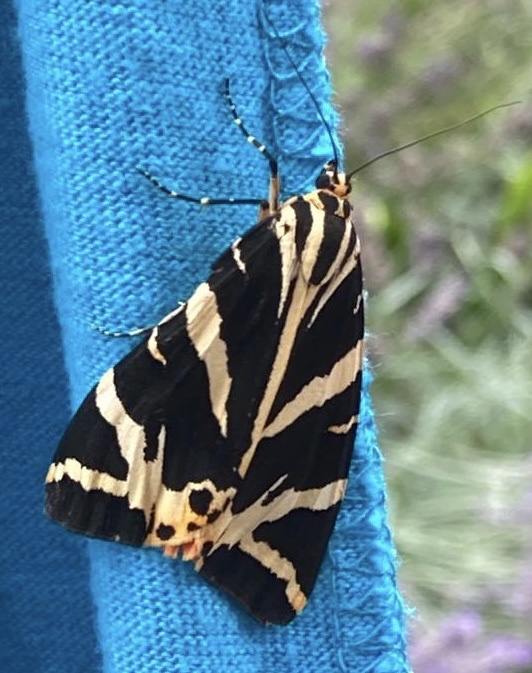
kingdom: Animalia
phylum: Arthropoda
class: Insecta
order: Lepidoptera
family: Erebidae
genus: Euplagia
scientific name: Euplagia quadripunctaria
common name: Jersey tiger
